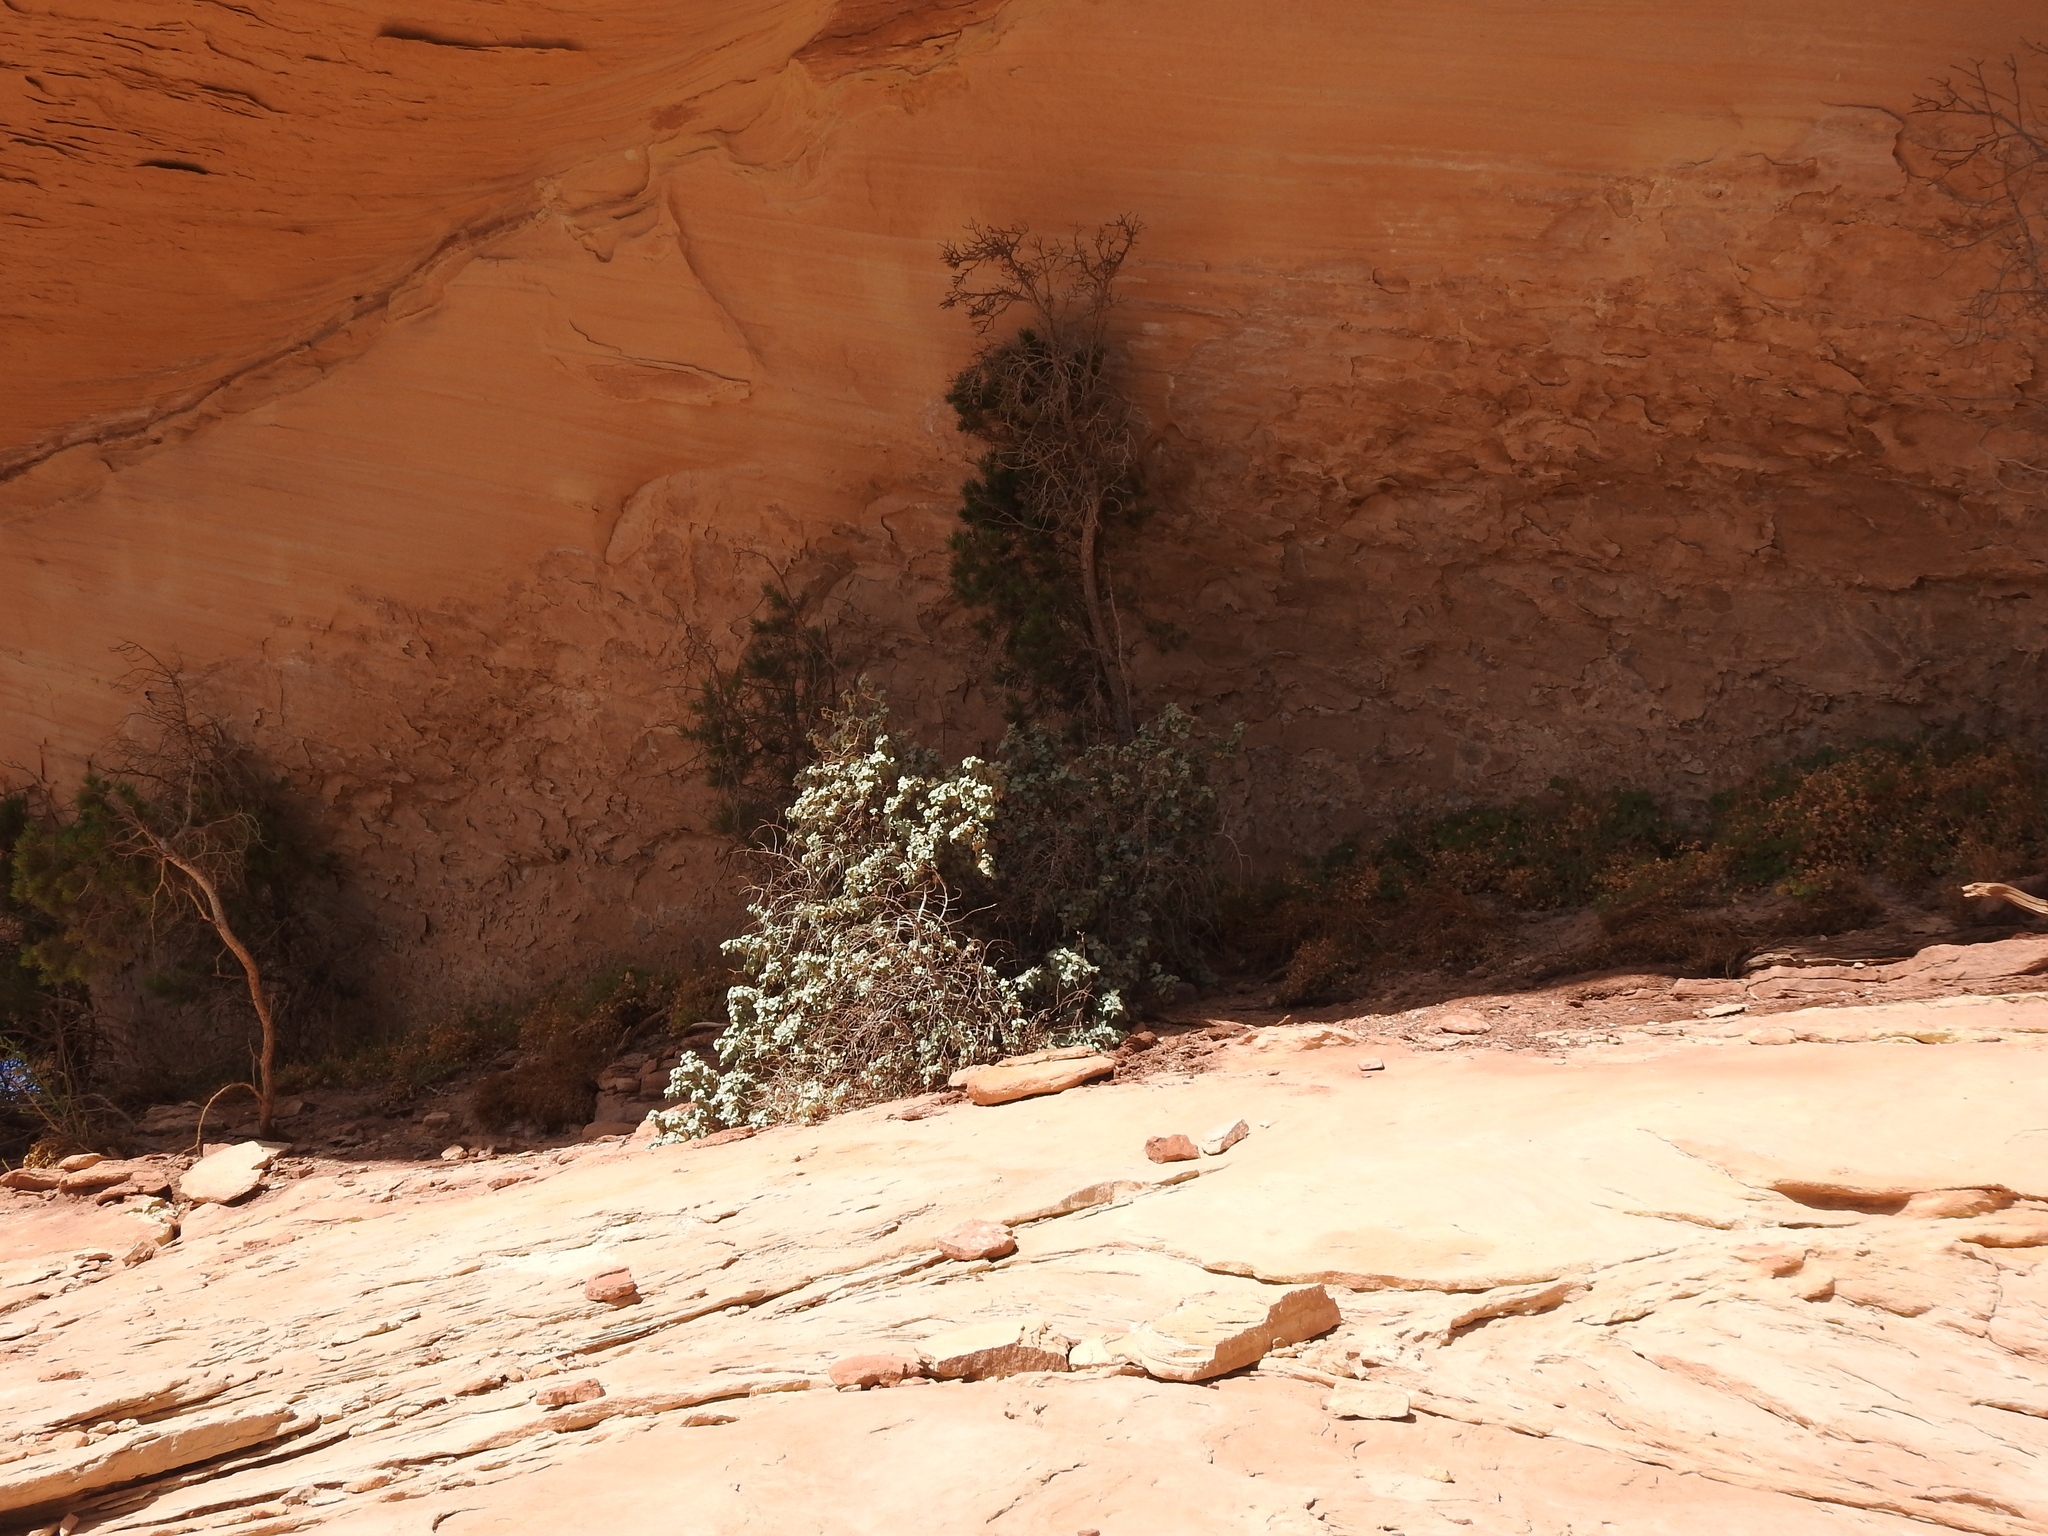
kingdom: Plantae
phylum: Tracheophyta
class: Magnoliopsida
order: Rosales
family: Elaeagnaceae
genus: Shepherdia
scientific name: Shepherdia rotundifolia
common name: Silverscale
